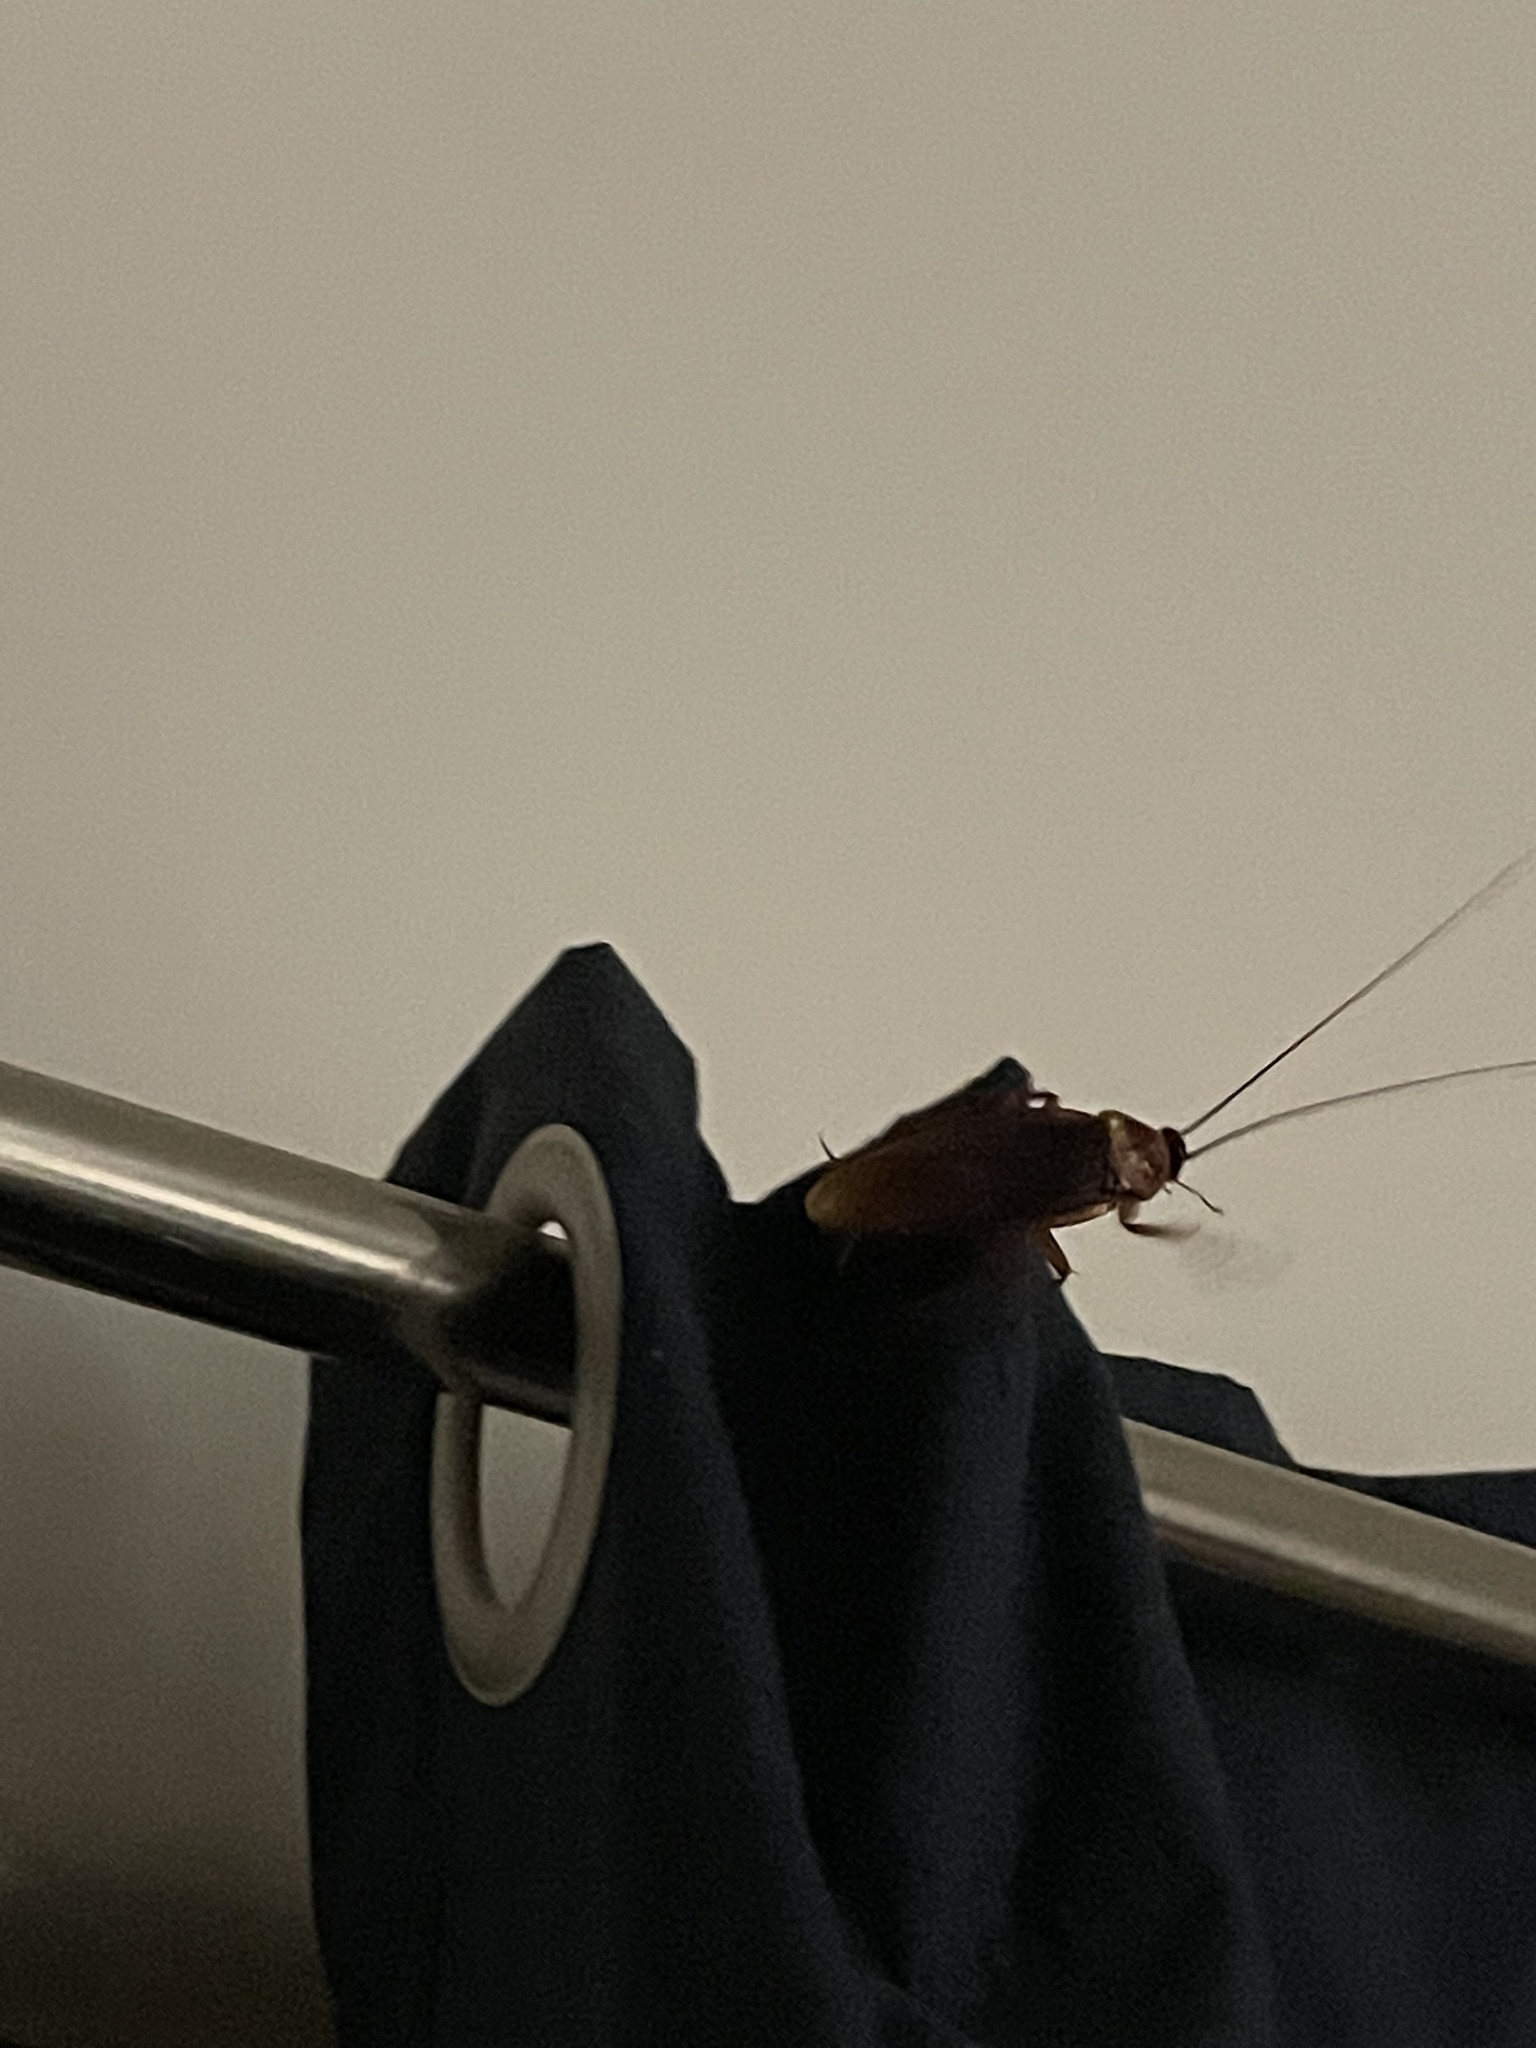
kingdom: Animalia
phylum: Arthropoda
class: Insecta
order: Blattodea
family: Blattidae
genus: Periplaneta
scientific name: Periplaneta americana
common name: American cockroach
